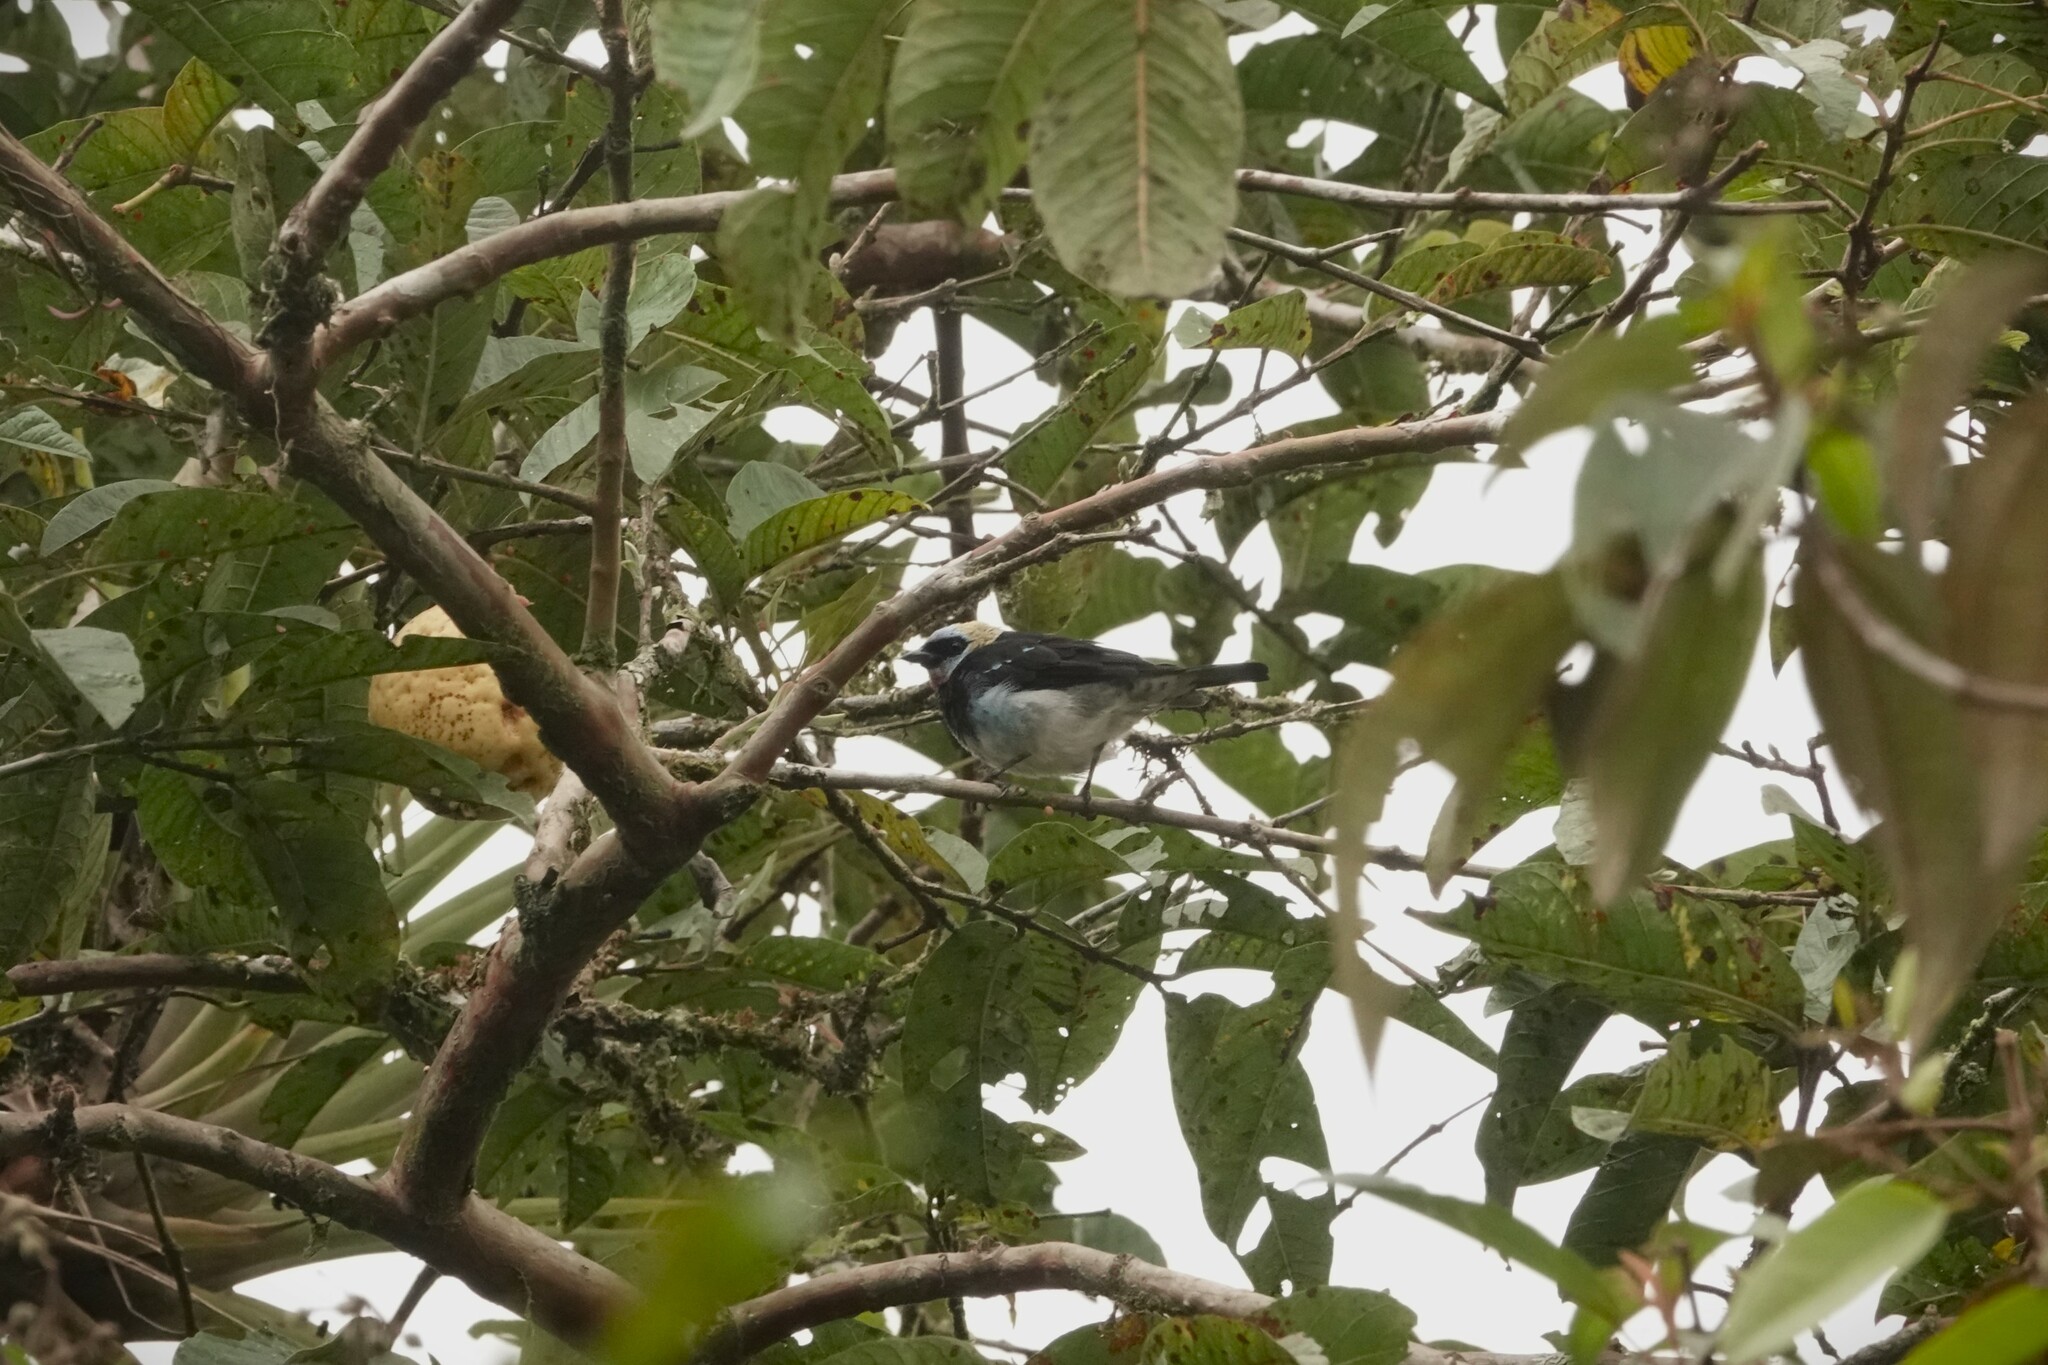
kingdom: Animalia
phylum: Chordata
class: Aves
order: Passeriformes
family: Thraupidae
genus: Stilpnia
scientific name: Stilpnia larvata
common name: Golden-hooded tanager
